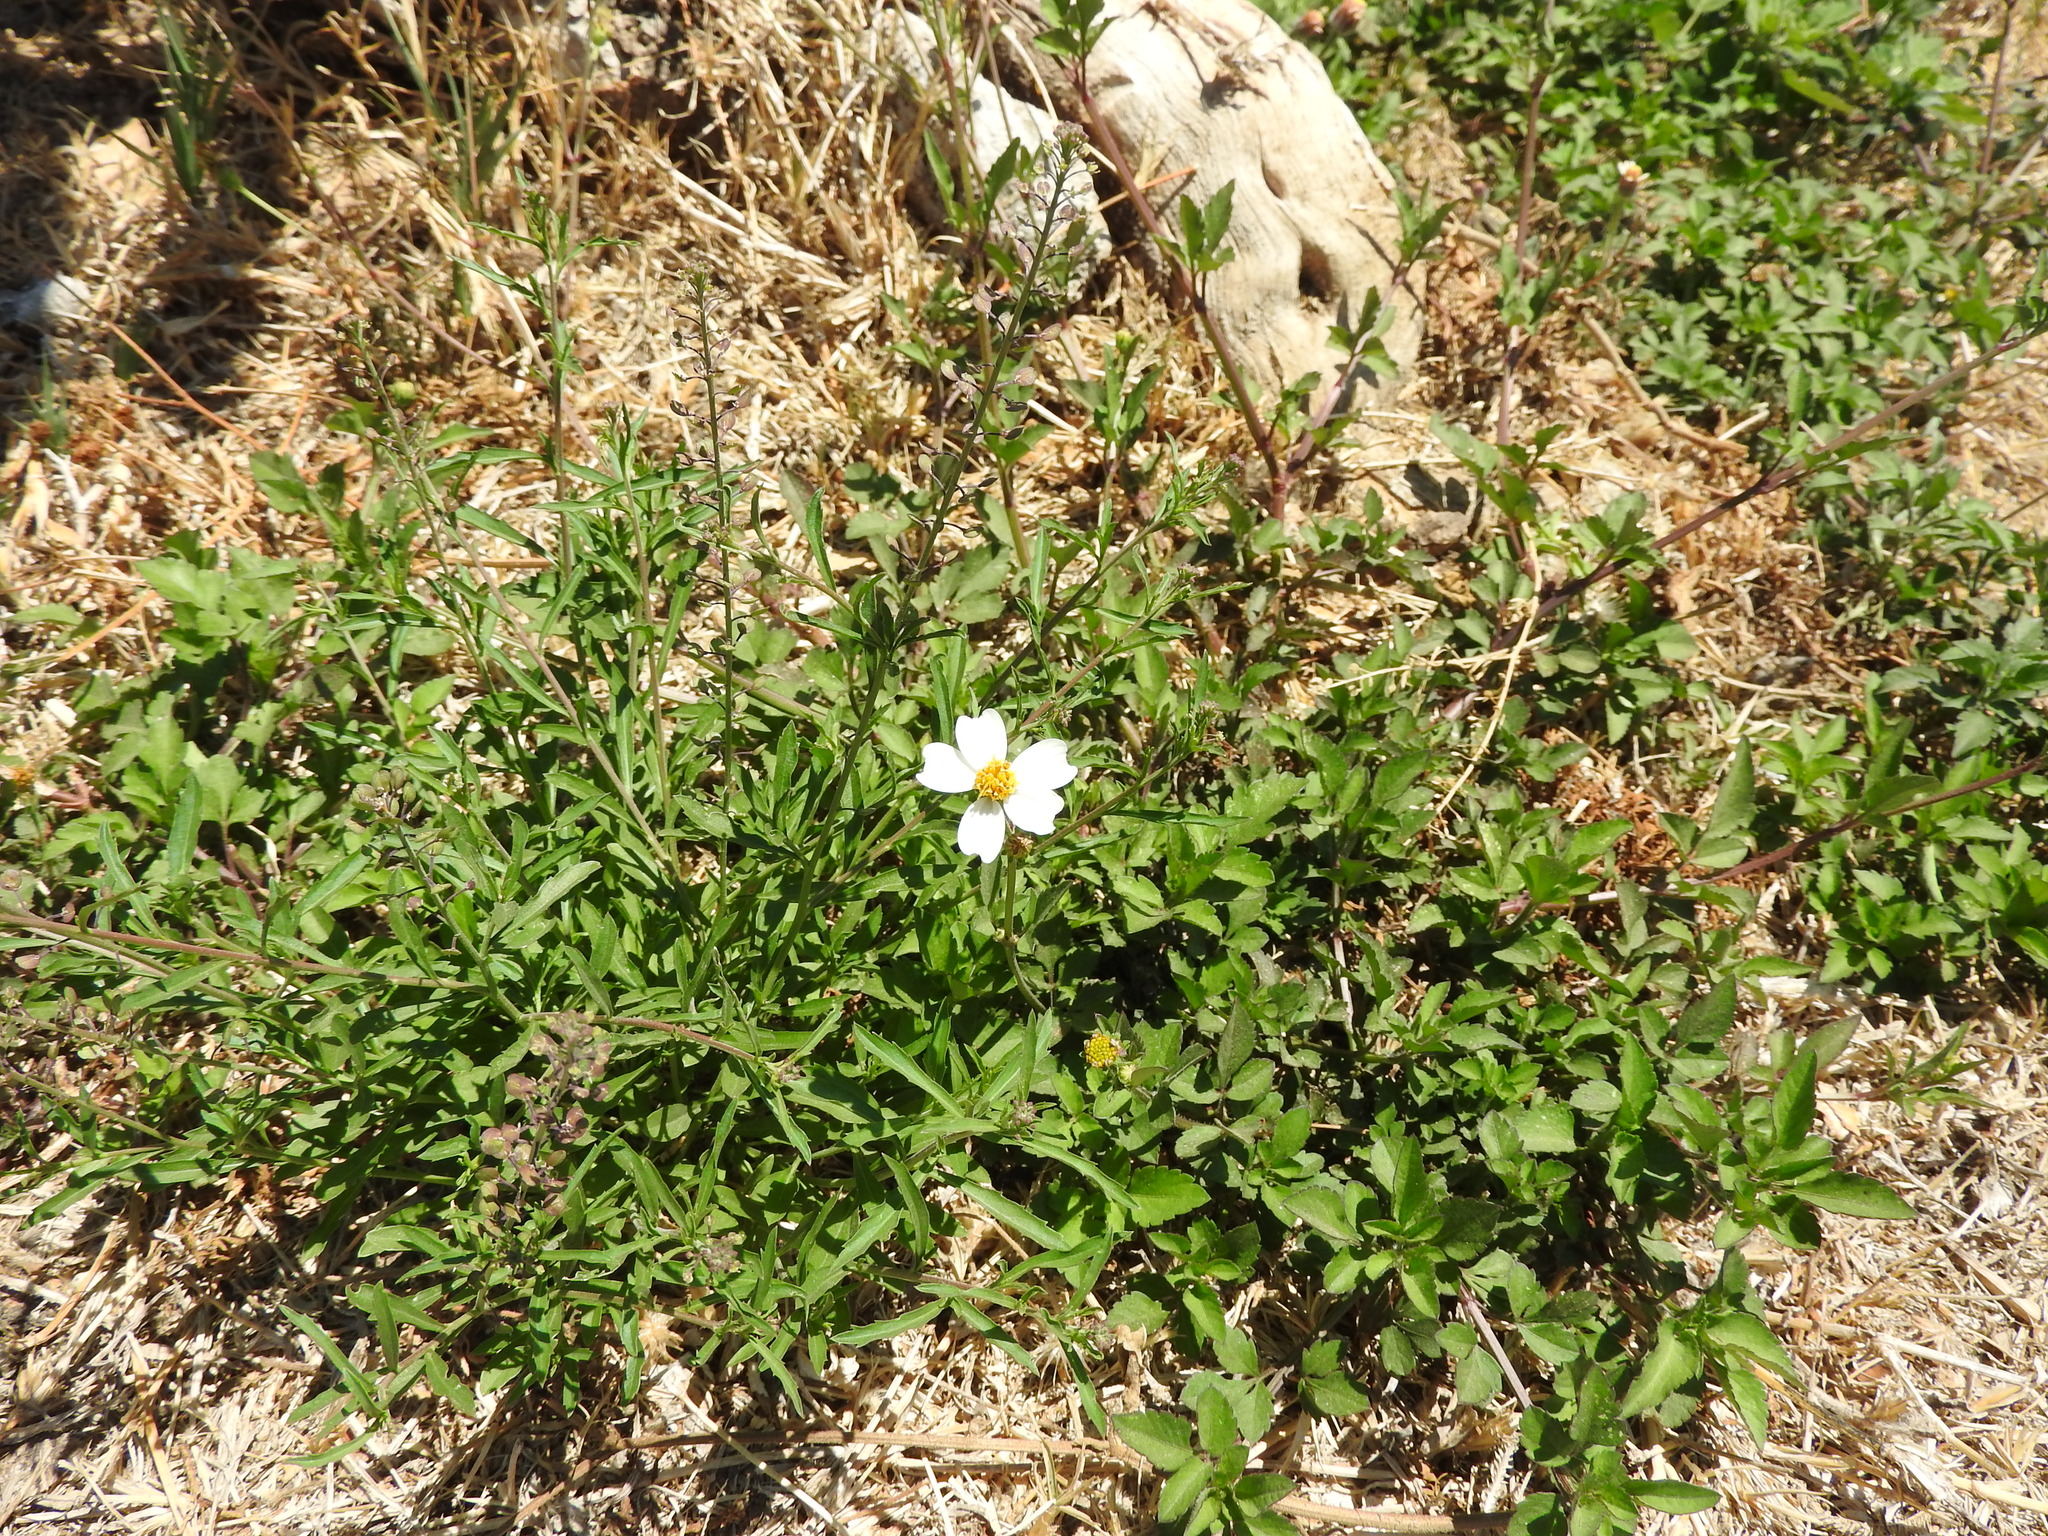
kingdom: Plantae
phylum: Tracheophyta
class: Magnoliopsida
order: Asterales
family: Asteraceae
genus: Bidens
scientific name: Bidens odorata
